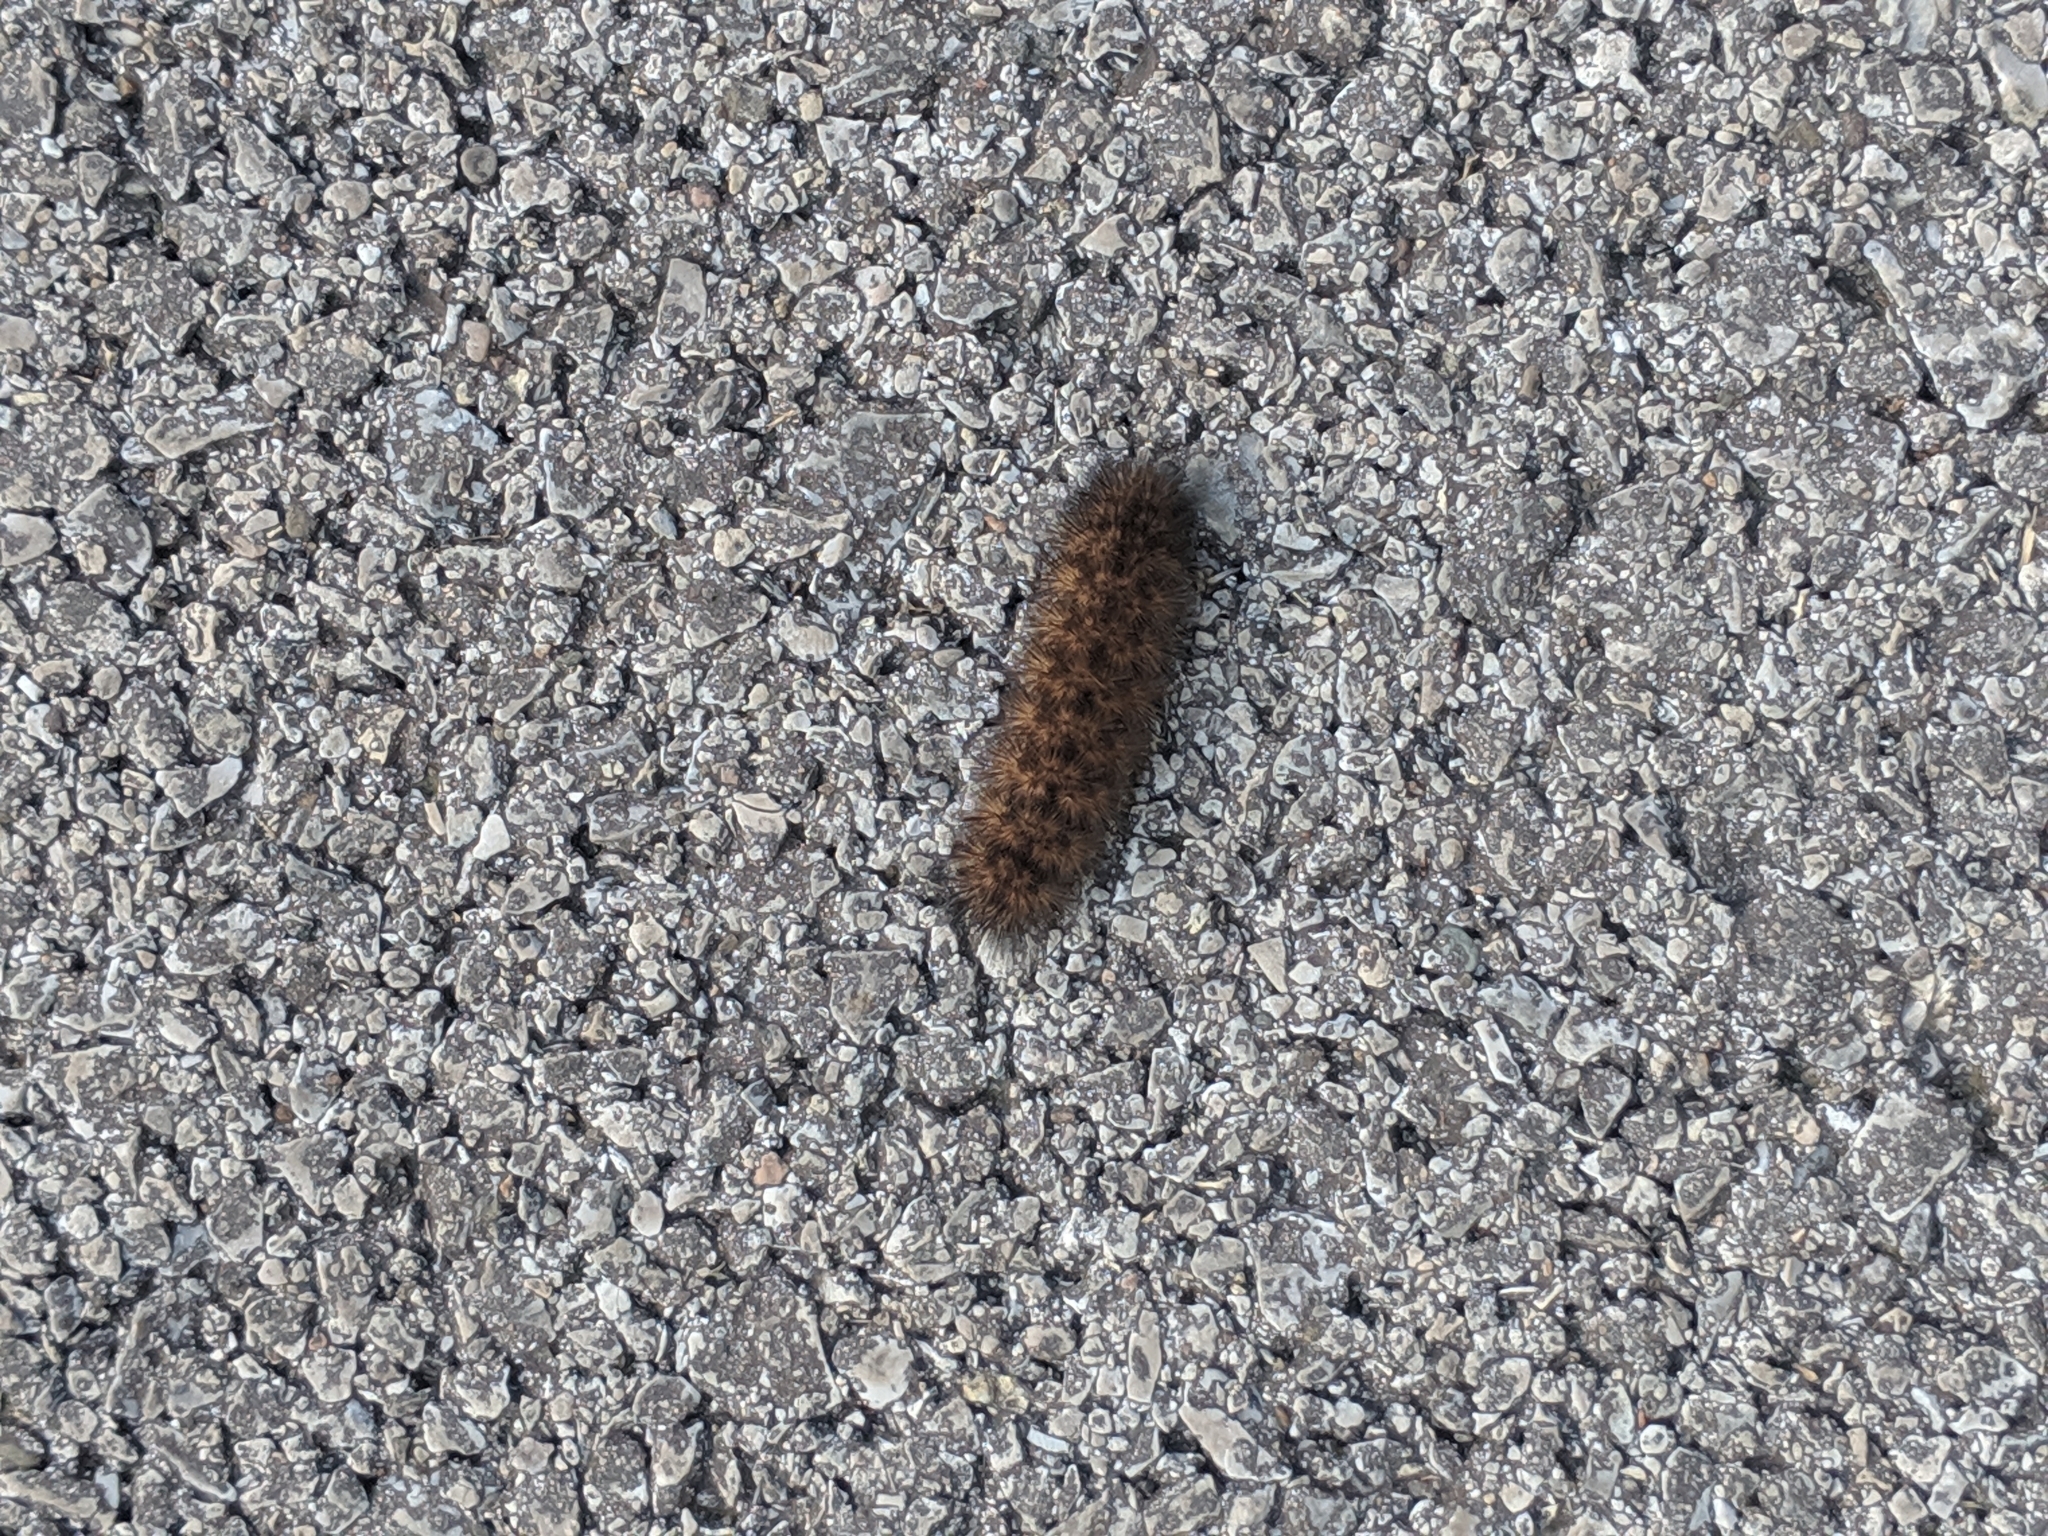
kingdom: Animalia
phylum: Arthropoda
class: Insecta
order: Lepidoptera
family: Erebidae
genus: Pyrrharctia
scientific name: Pyrrharctia isabella
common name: Isabella tiger moth
